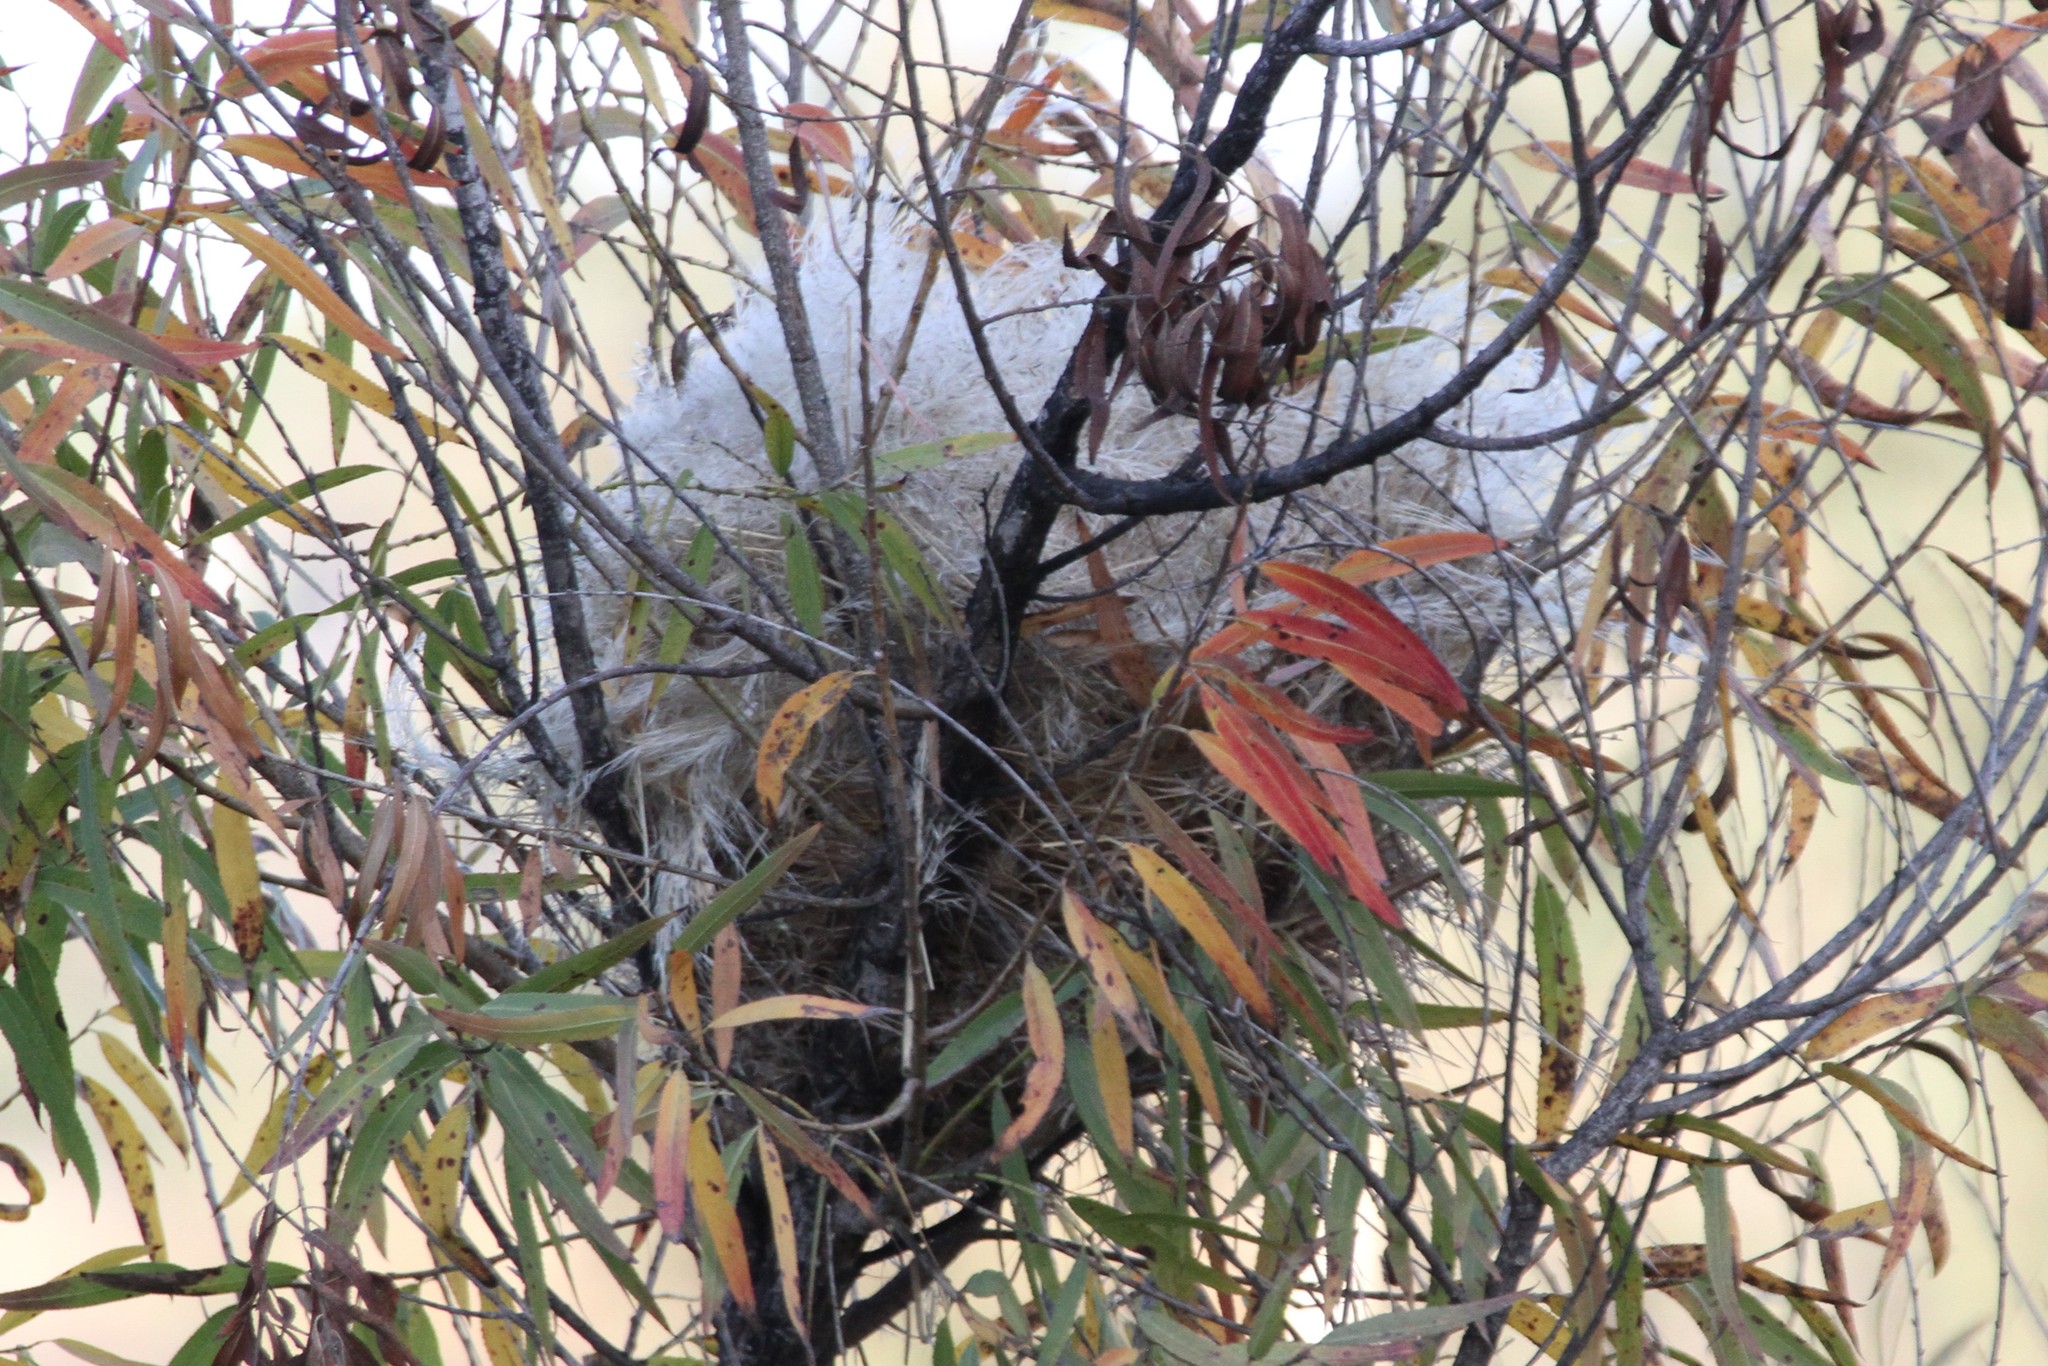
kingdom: Animalia
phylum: Chordata
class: Aves
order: Passeriformes
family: Estrildidae
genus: Lonchura
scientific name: Lonchura punctulata
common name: Scaly-breasted munia
